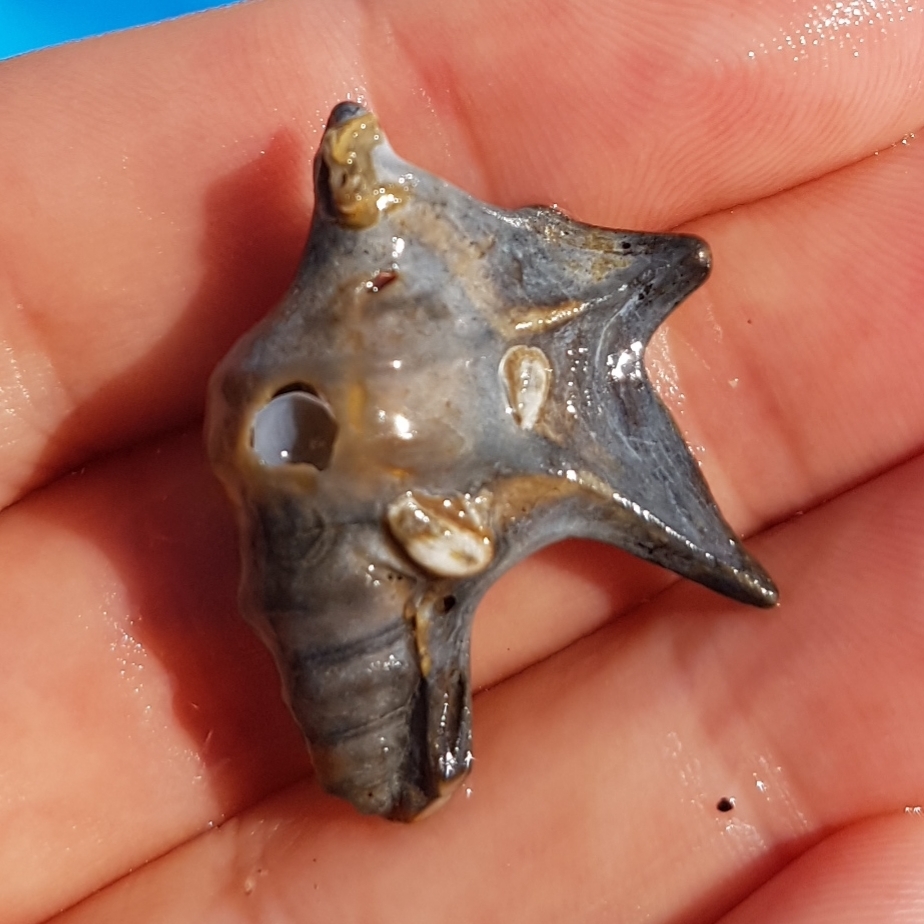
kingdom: Animalia
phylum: Mollusca
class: Gastropoda
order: Littorinimorpha
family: Aporrhaidae
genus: Aporrhais
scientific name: Aporrhais pespelecani
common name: Common pelican’s foot
